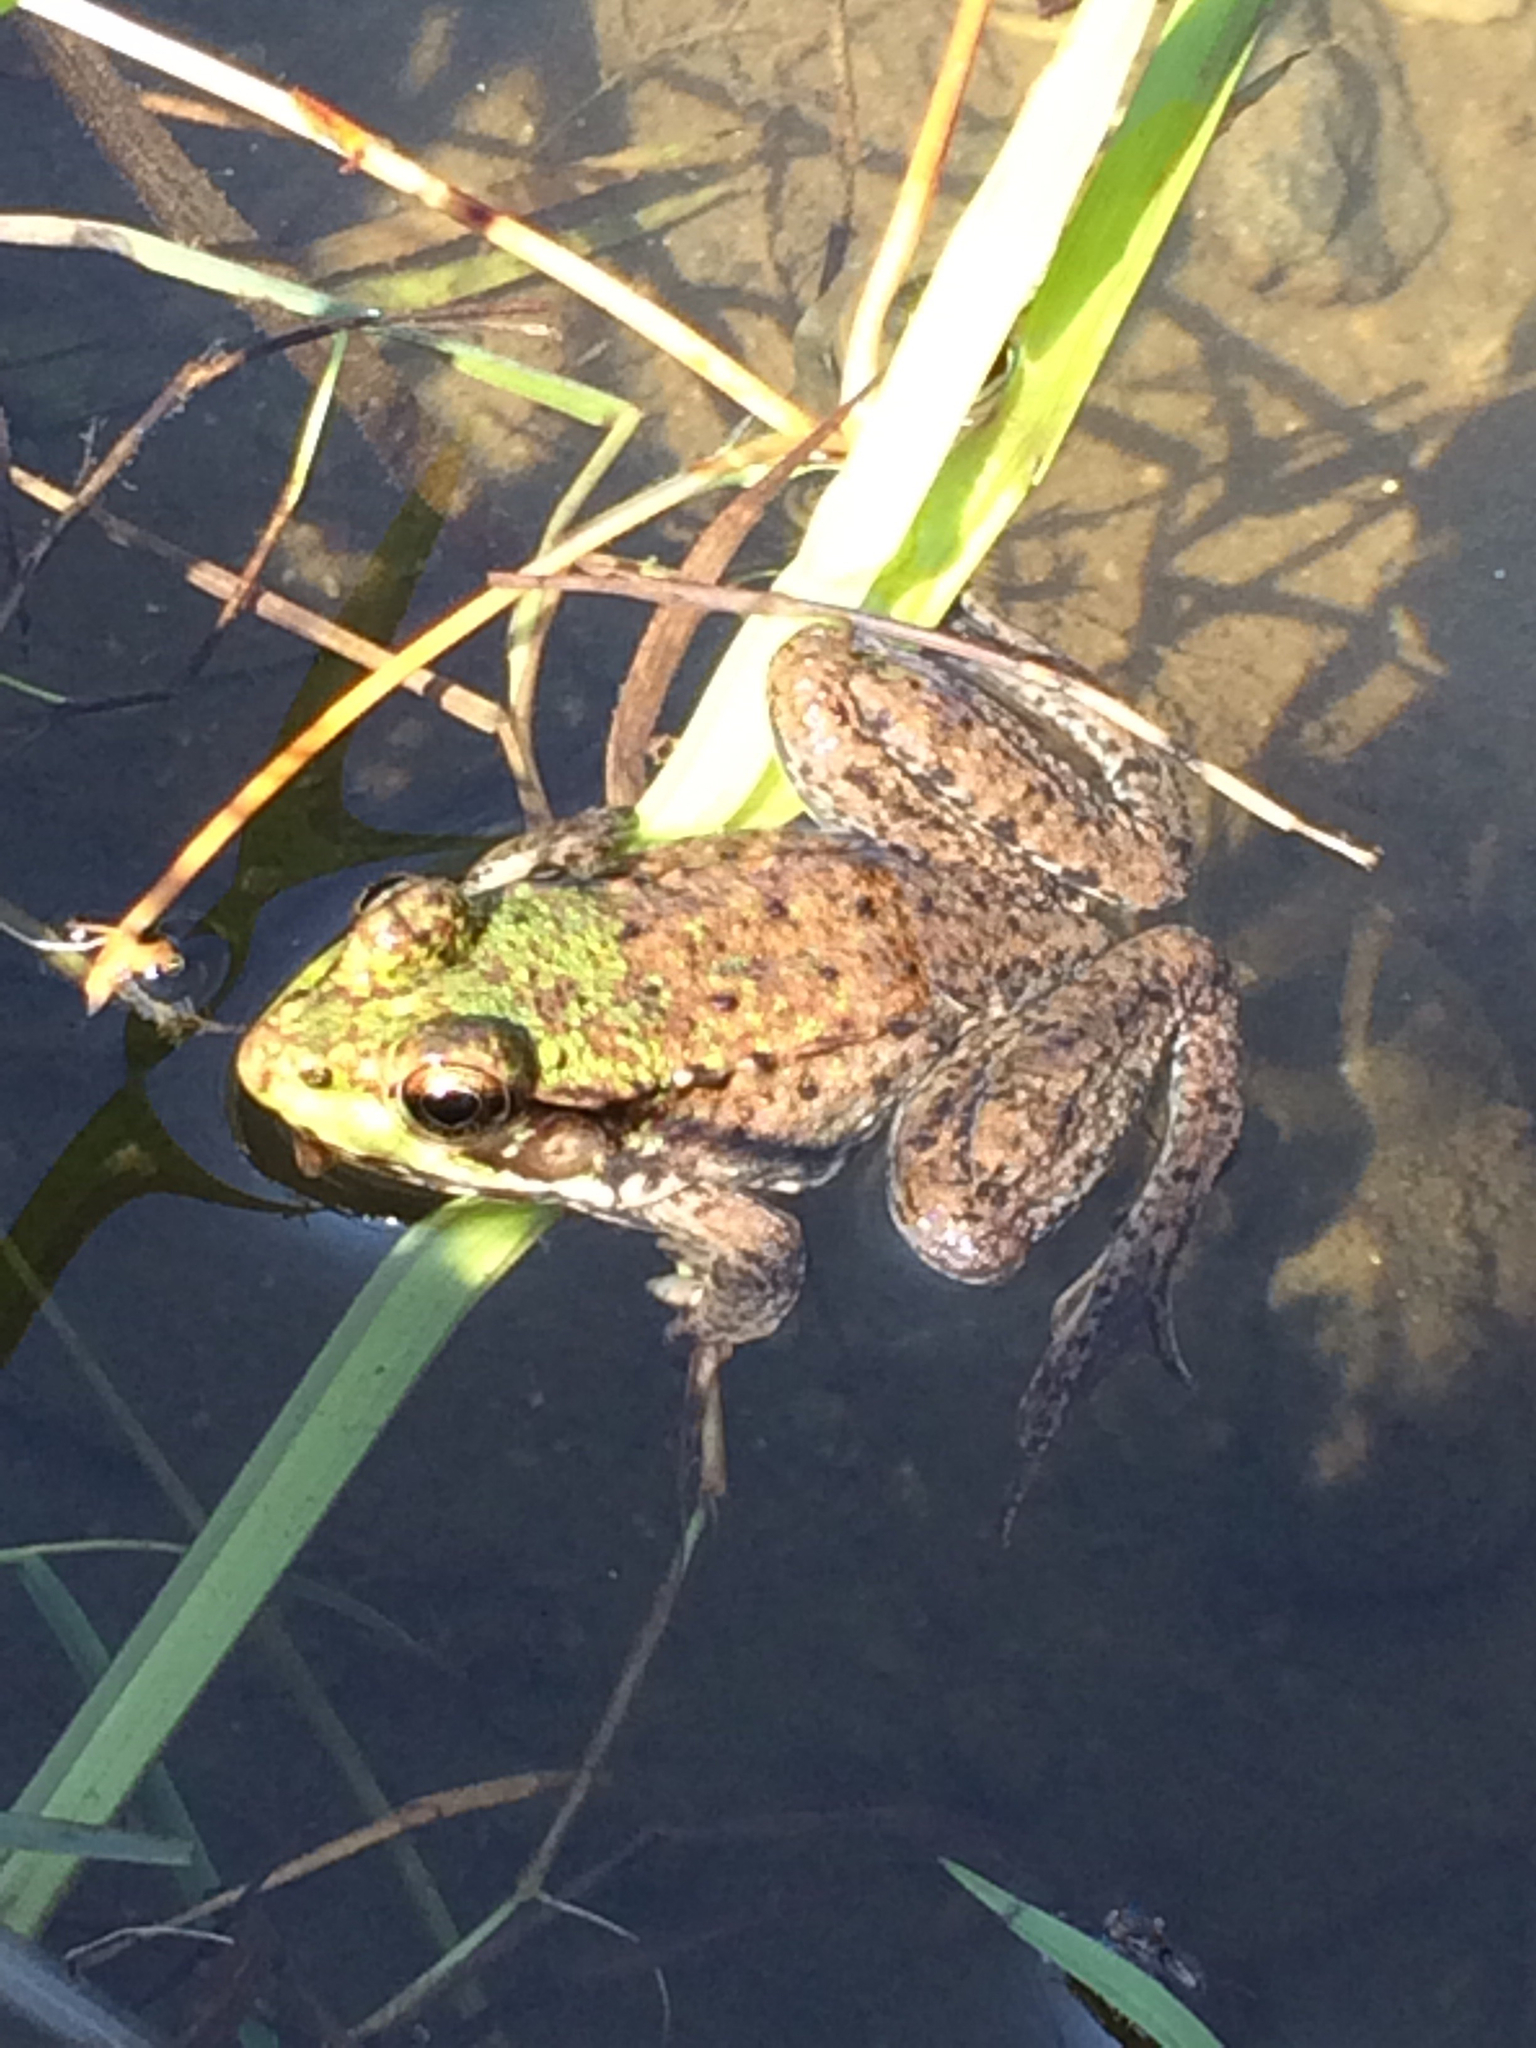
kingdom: Animalia
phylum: Chordata
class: Amphibia
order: Anura
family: Ranidae
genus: Lithobates
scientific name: Lithobates clamitans
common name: Green frog
